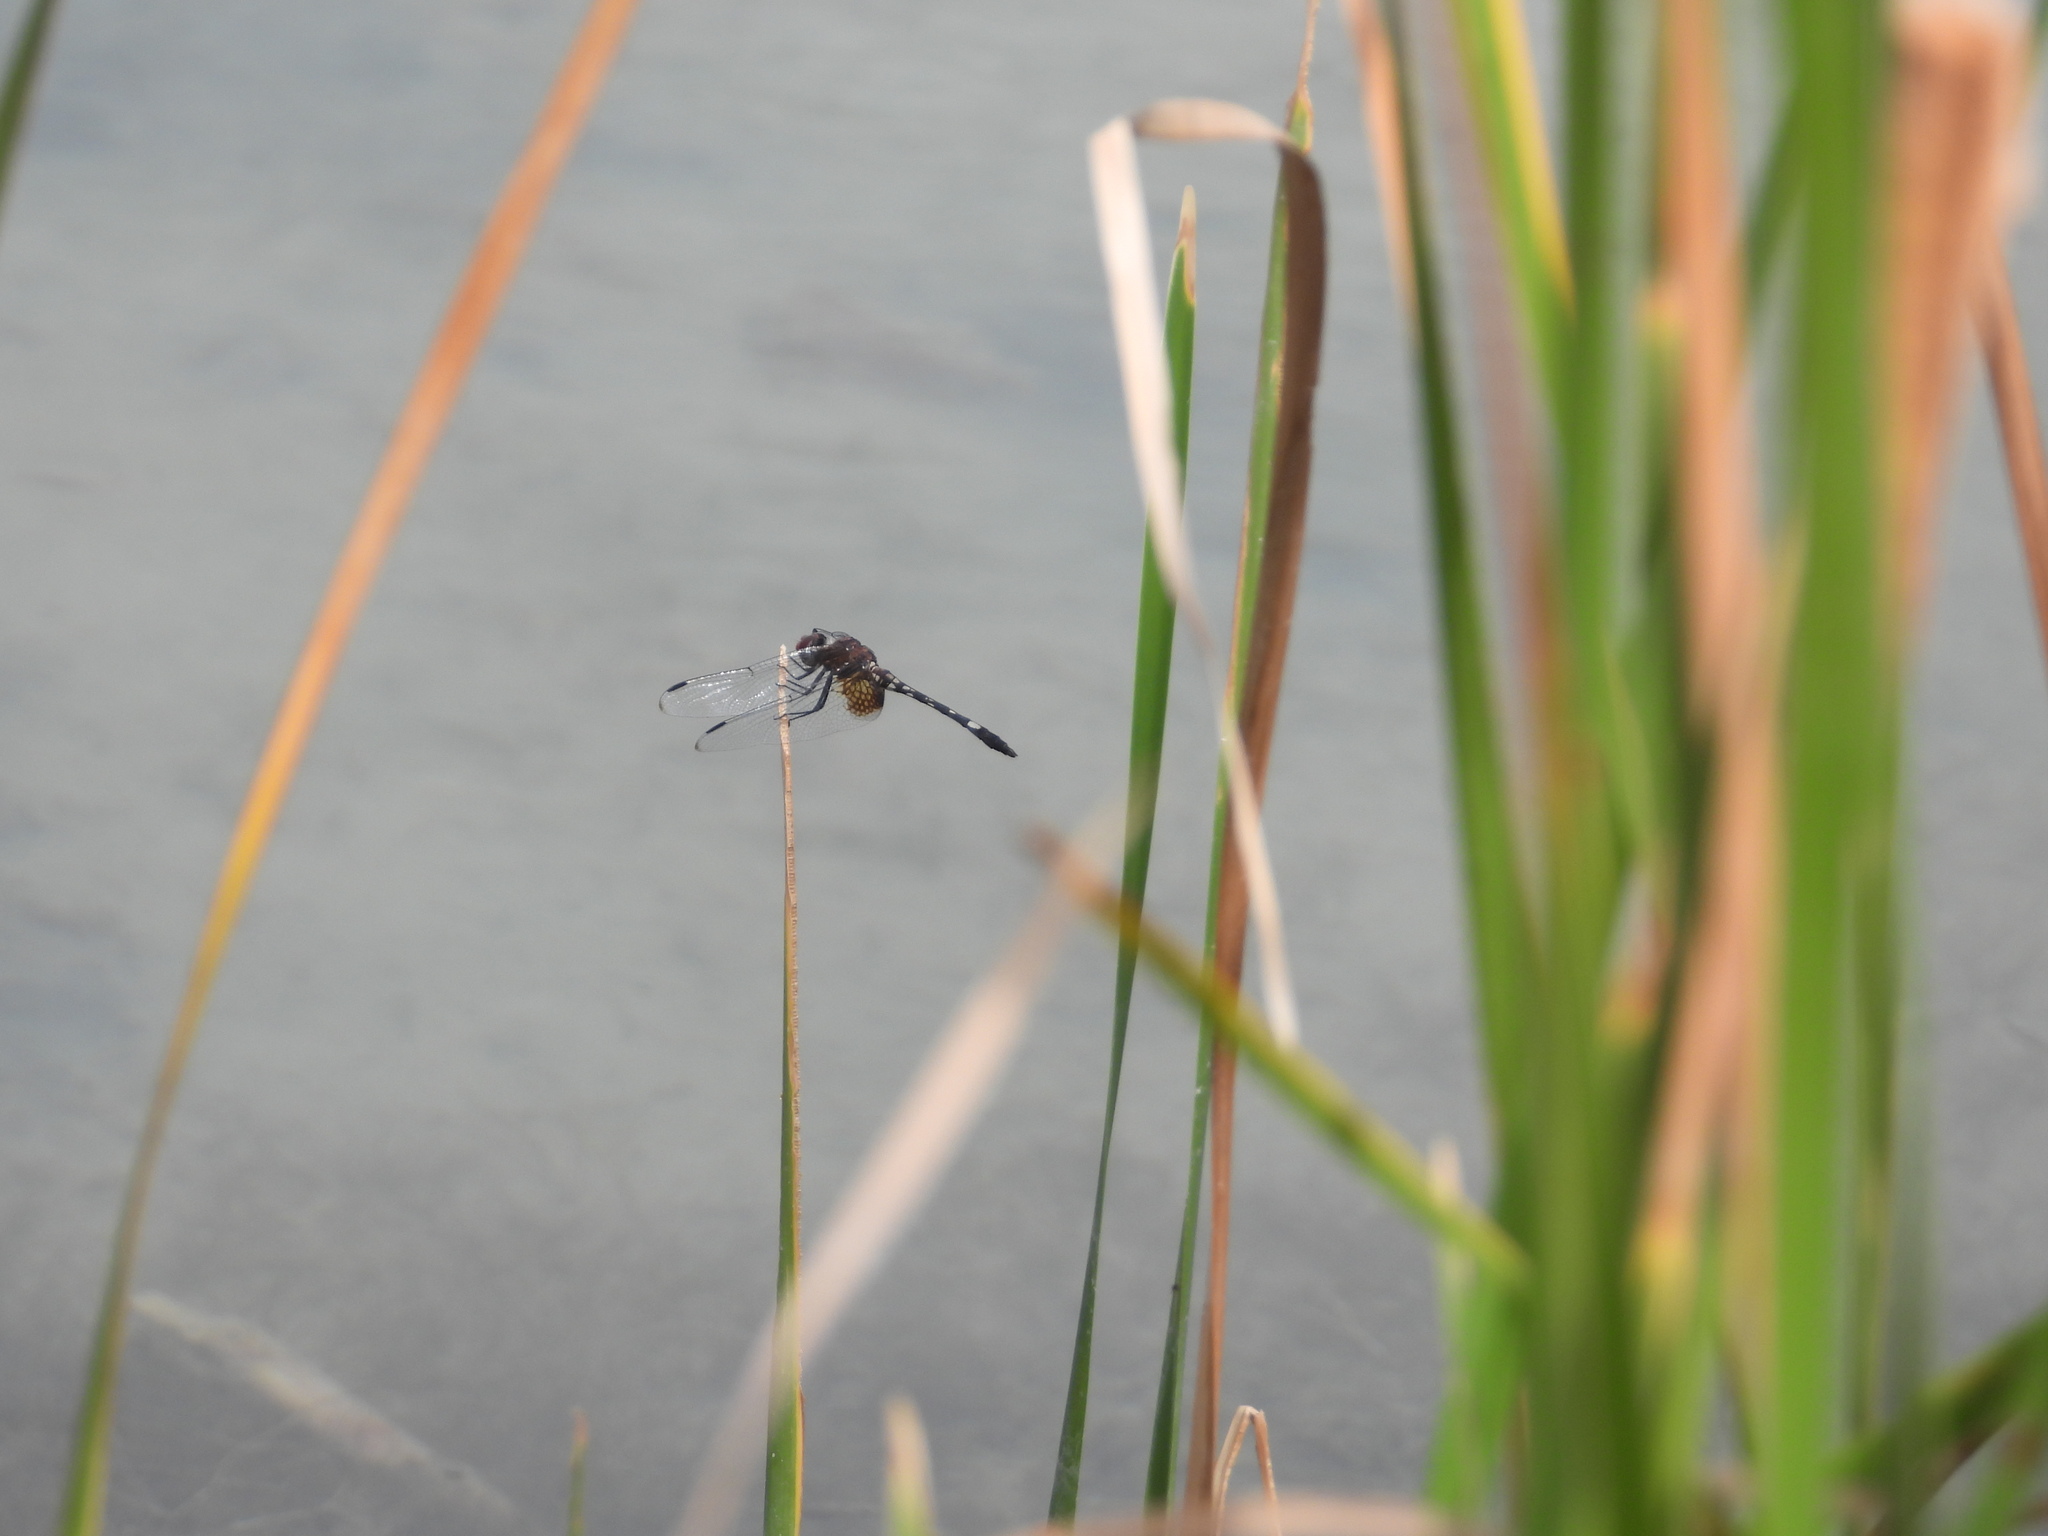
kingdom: Animalia
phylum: Arthropoda
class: Insecta
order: Odonata
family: Libellulidae
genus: Dythemis
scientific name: Dythemis fugax
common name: Checkered setwing
